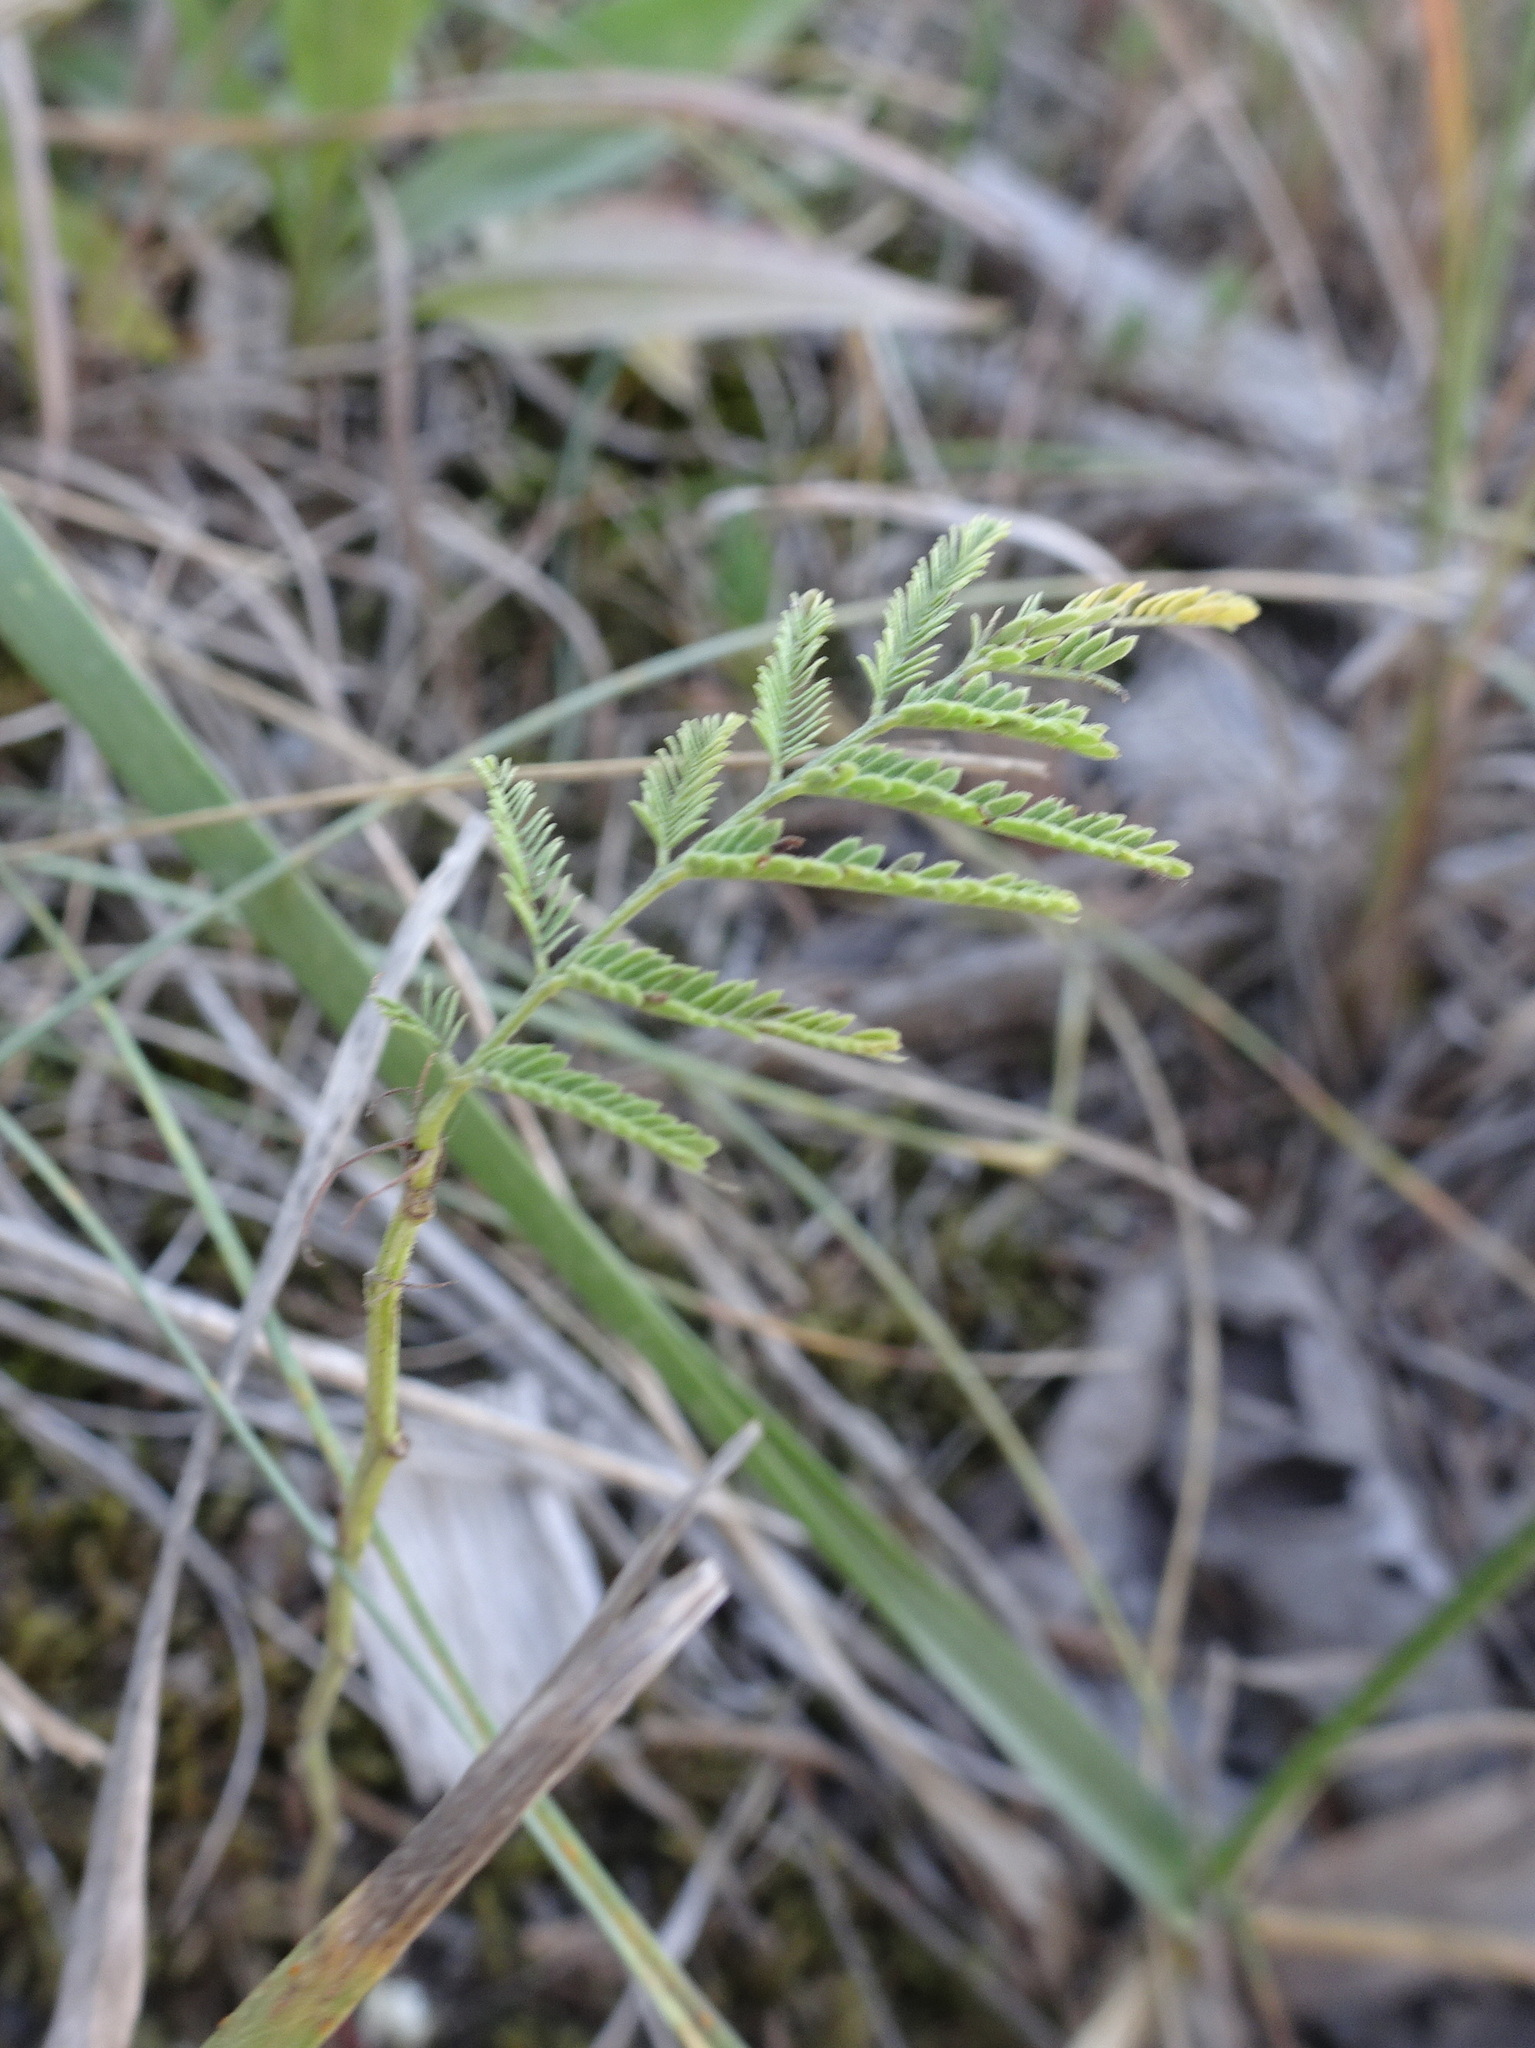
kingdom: Plantae
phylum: Tracheophyta
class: Magnoliopsida
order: Fabales
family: Fabaceae
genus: Desmanthus
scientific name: Desmanthus illinoensis
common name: Illinois bundle-flower
